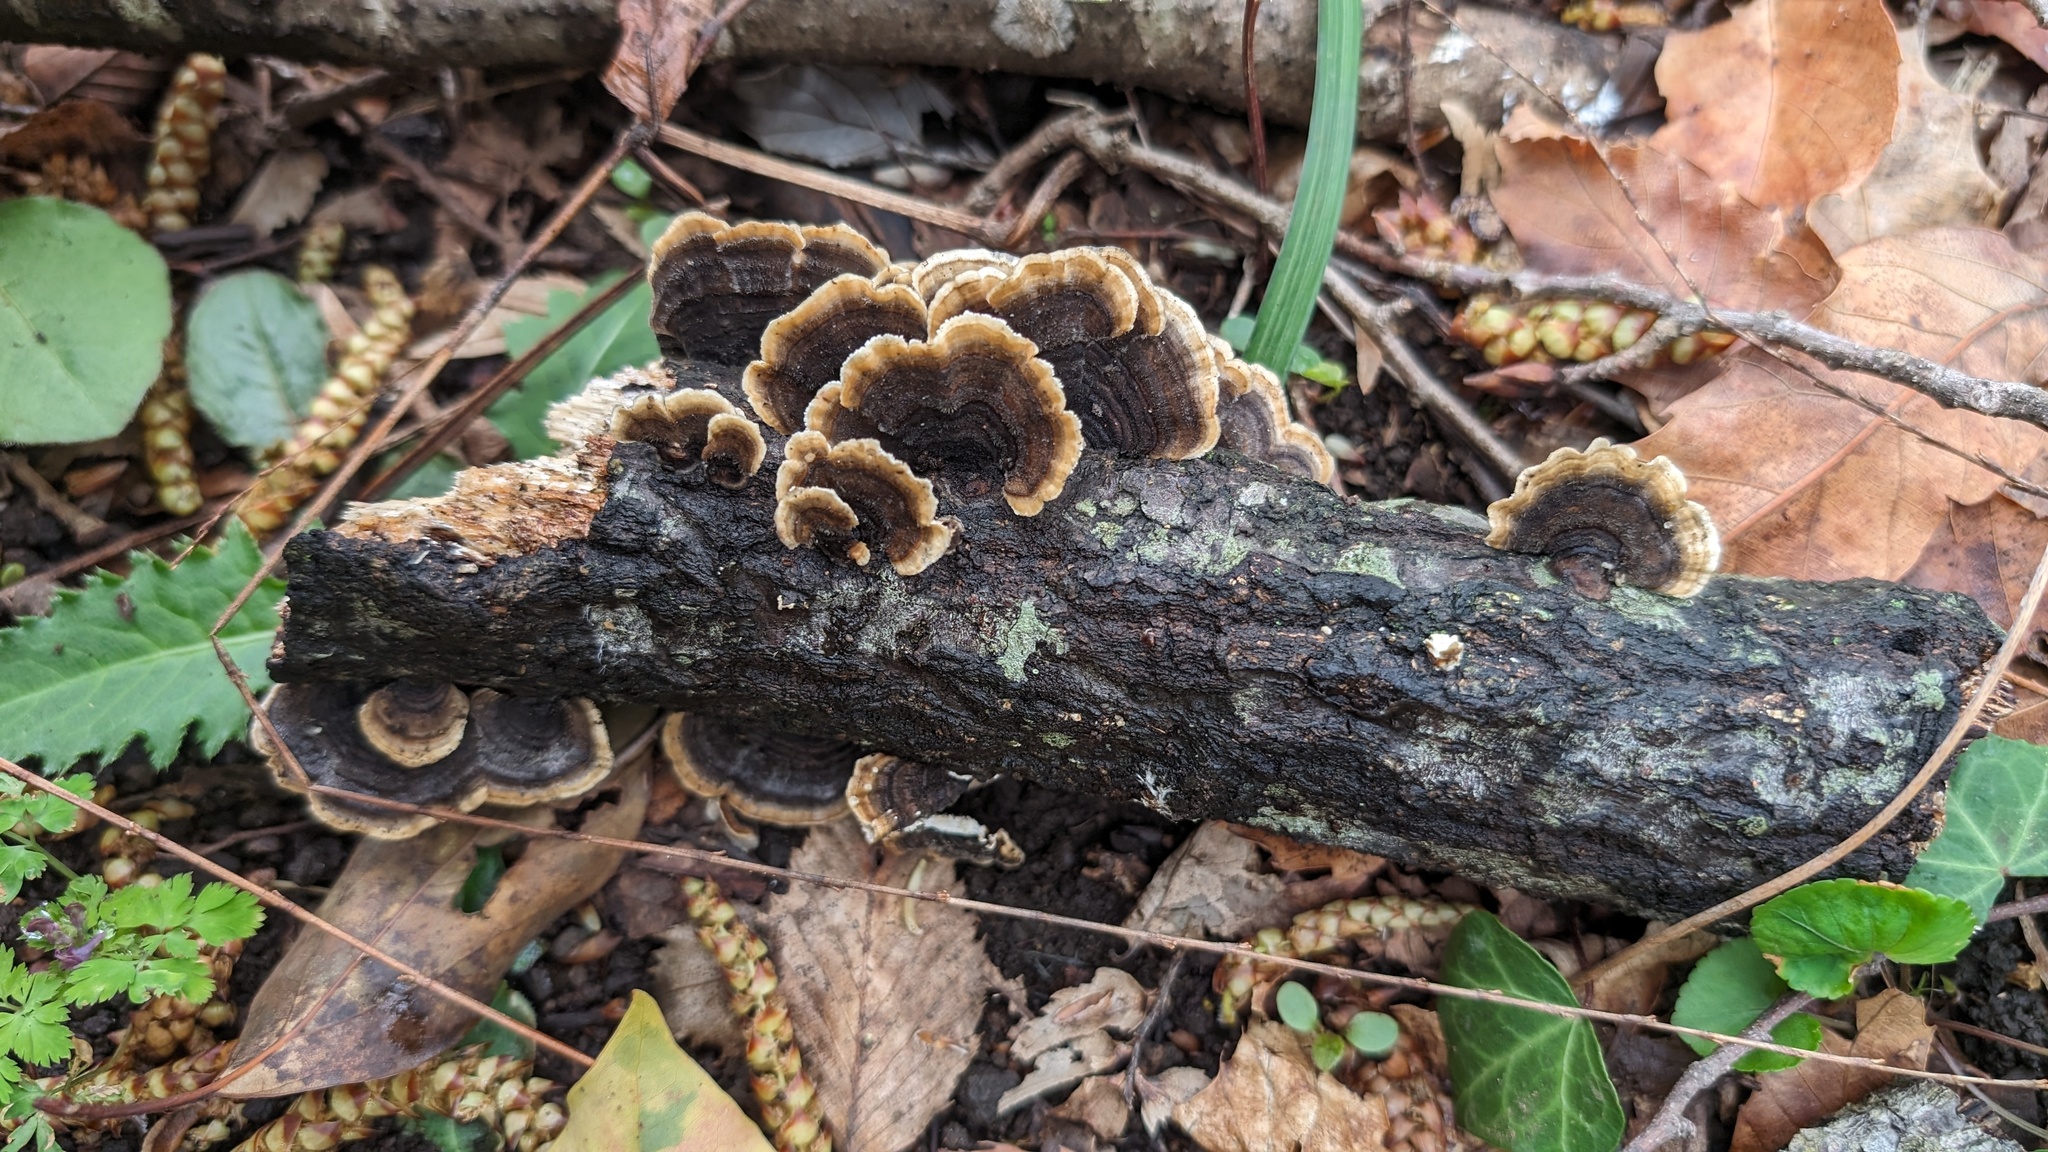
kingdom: Fungi
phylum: Basidiomycota
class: Agaricomycetes
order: Polyporales
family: Polyporaceae
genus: Trametes
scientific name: Trametes versicolor
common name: Turkeytail
